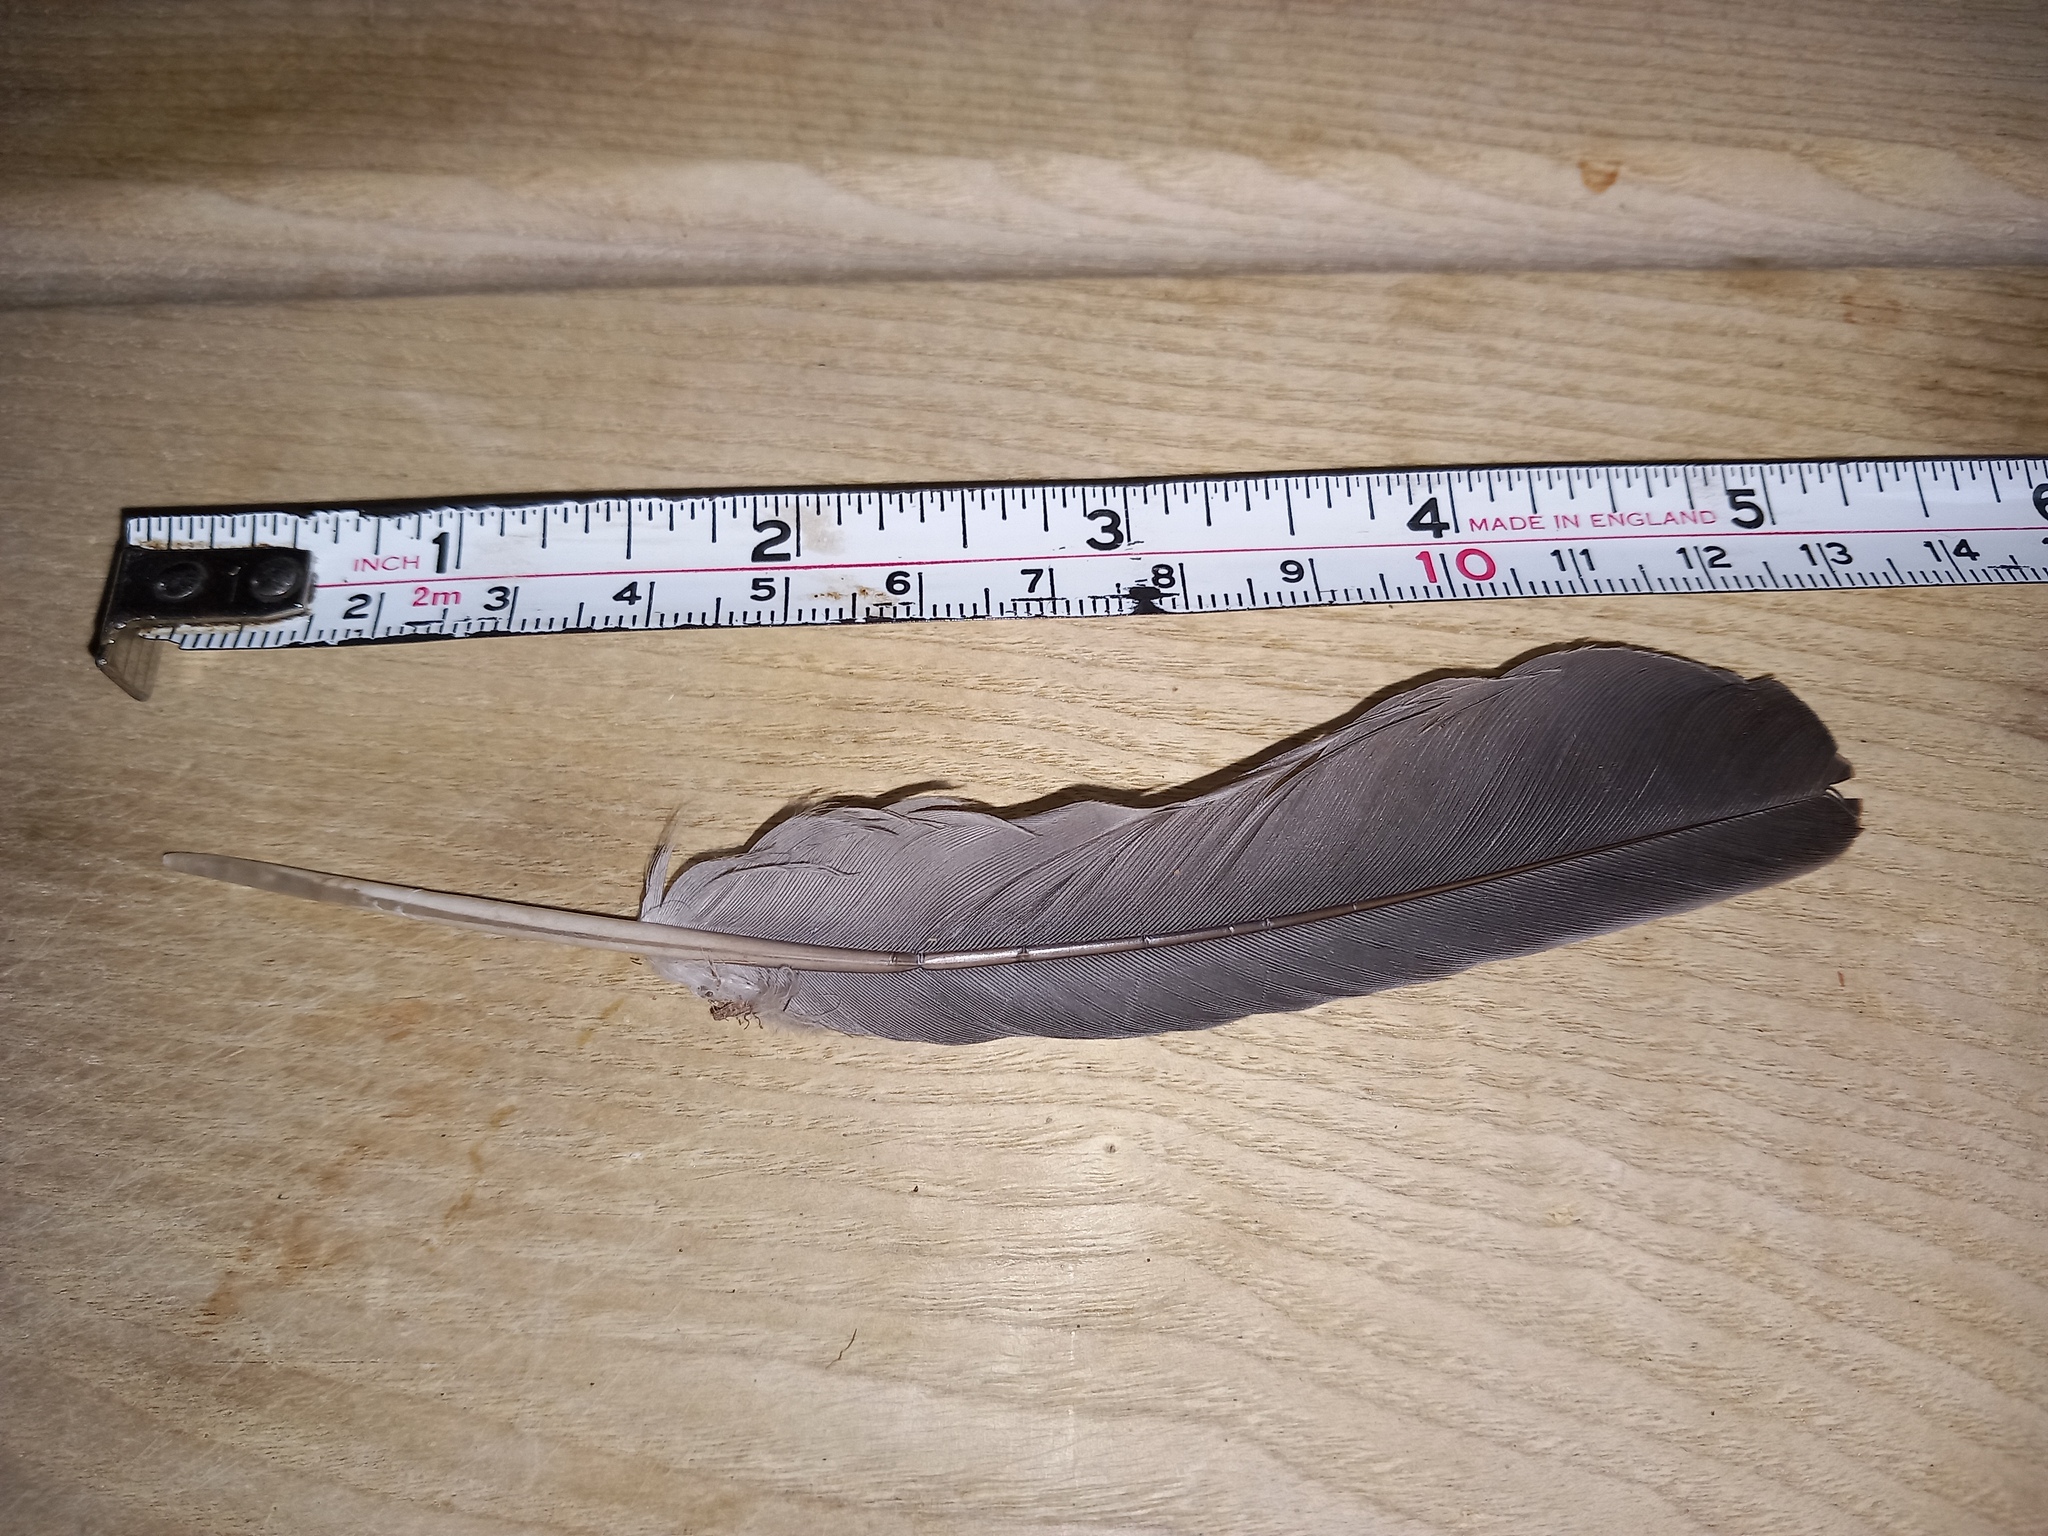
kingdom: Animalia
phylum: Chordata
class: Aves
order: Columbiformes
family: Columbidae
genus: Columba
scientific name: Columba palumbus
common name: Common wood pigeon
